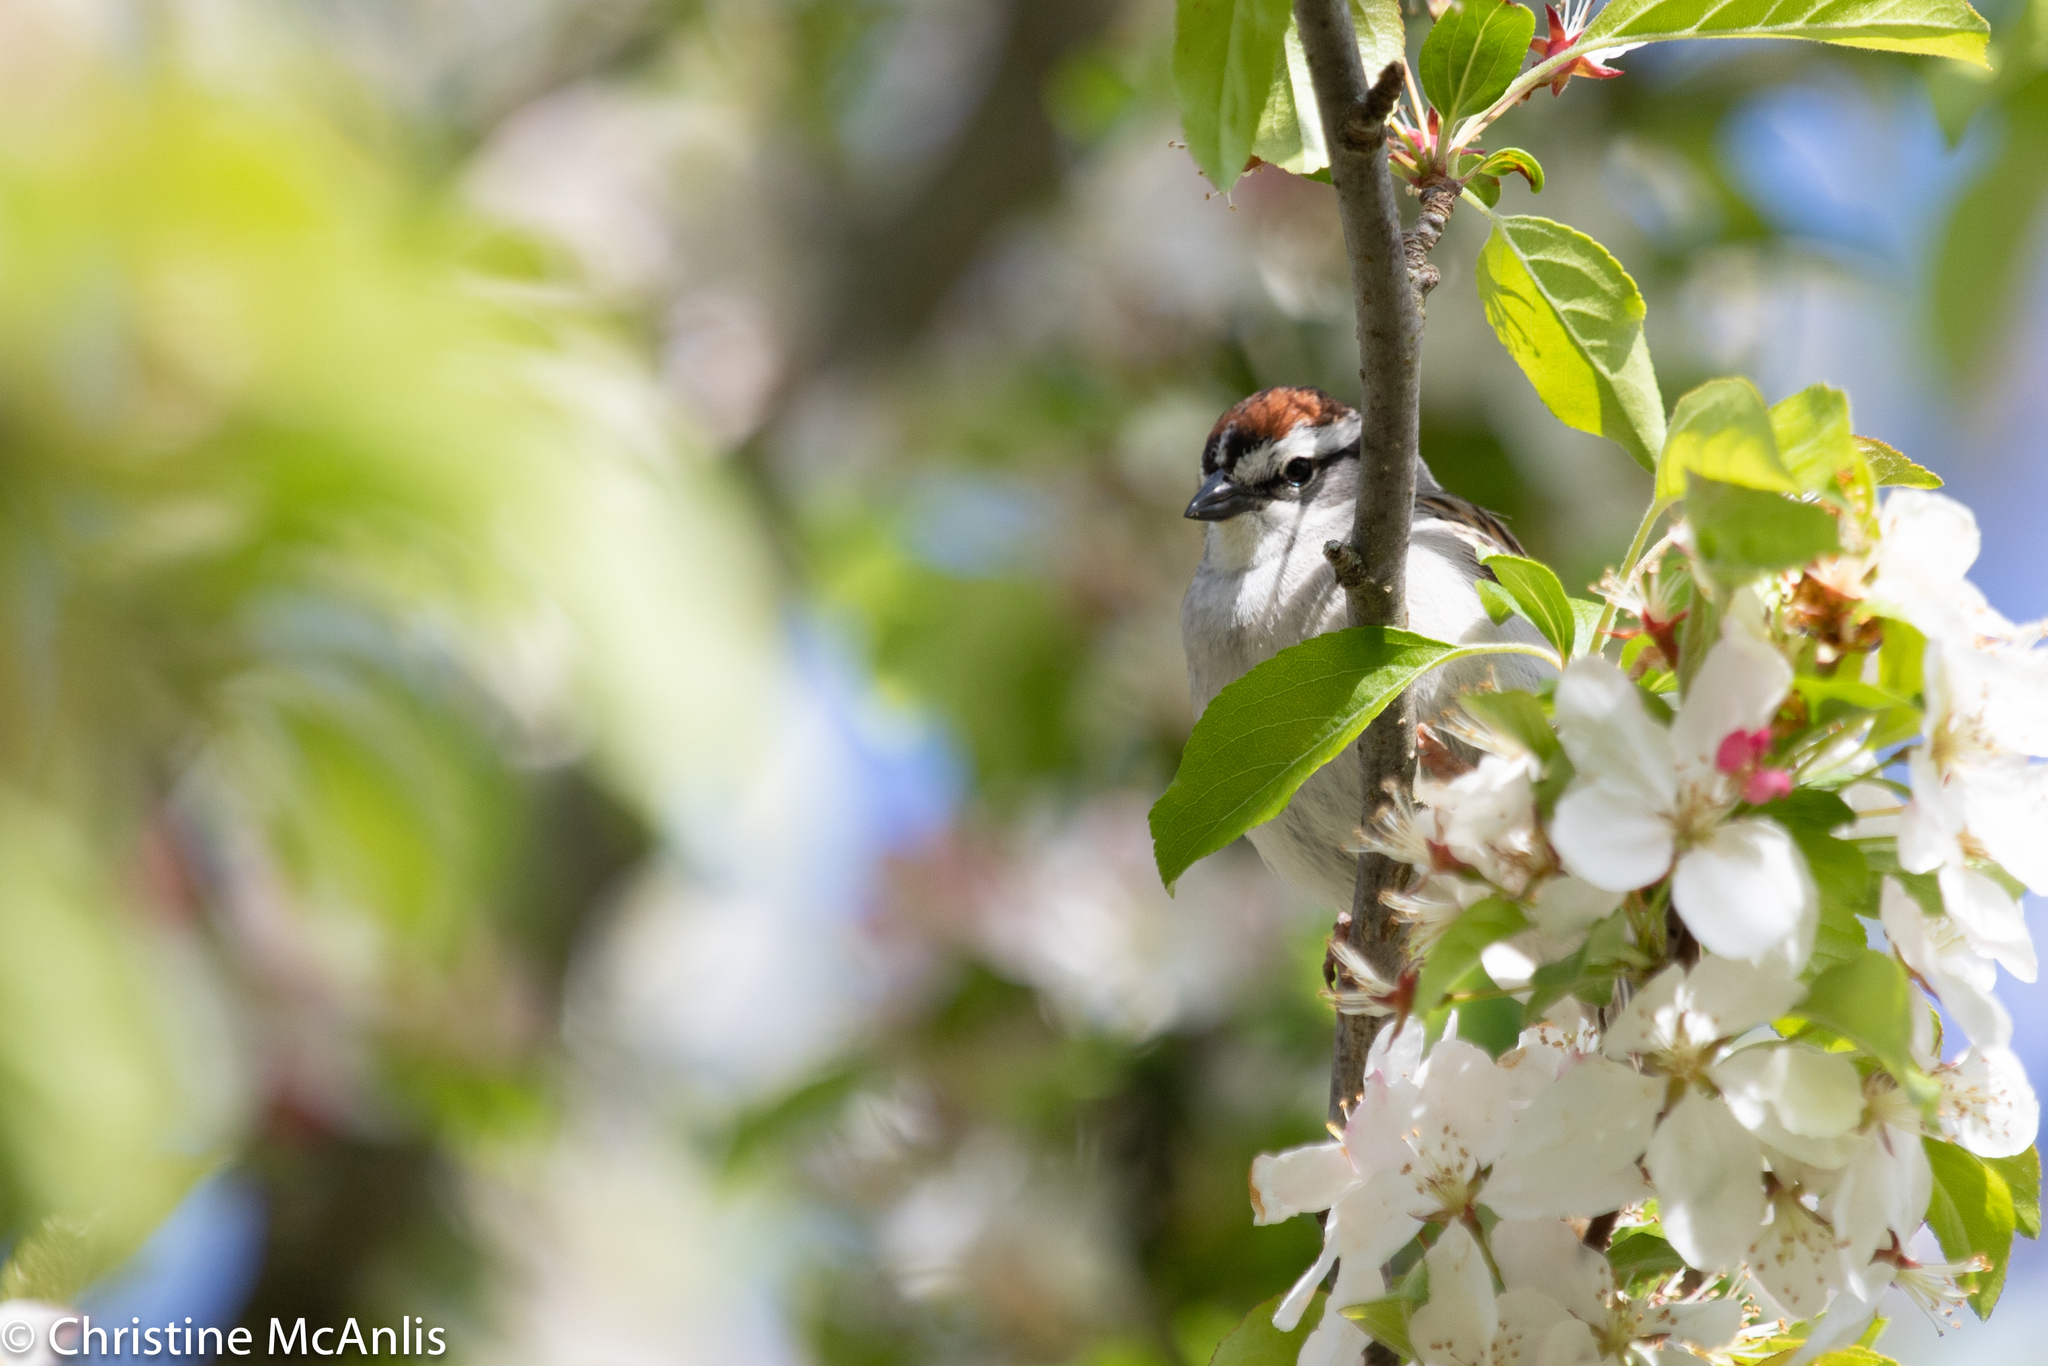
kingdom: Animalia
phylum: Chordata
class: Aves
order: Passeriformes
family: Passerellidae
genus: Spizella
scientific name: Spizella passerina
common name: Chipping sparrow
